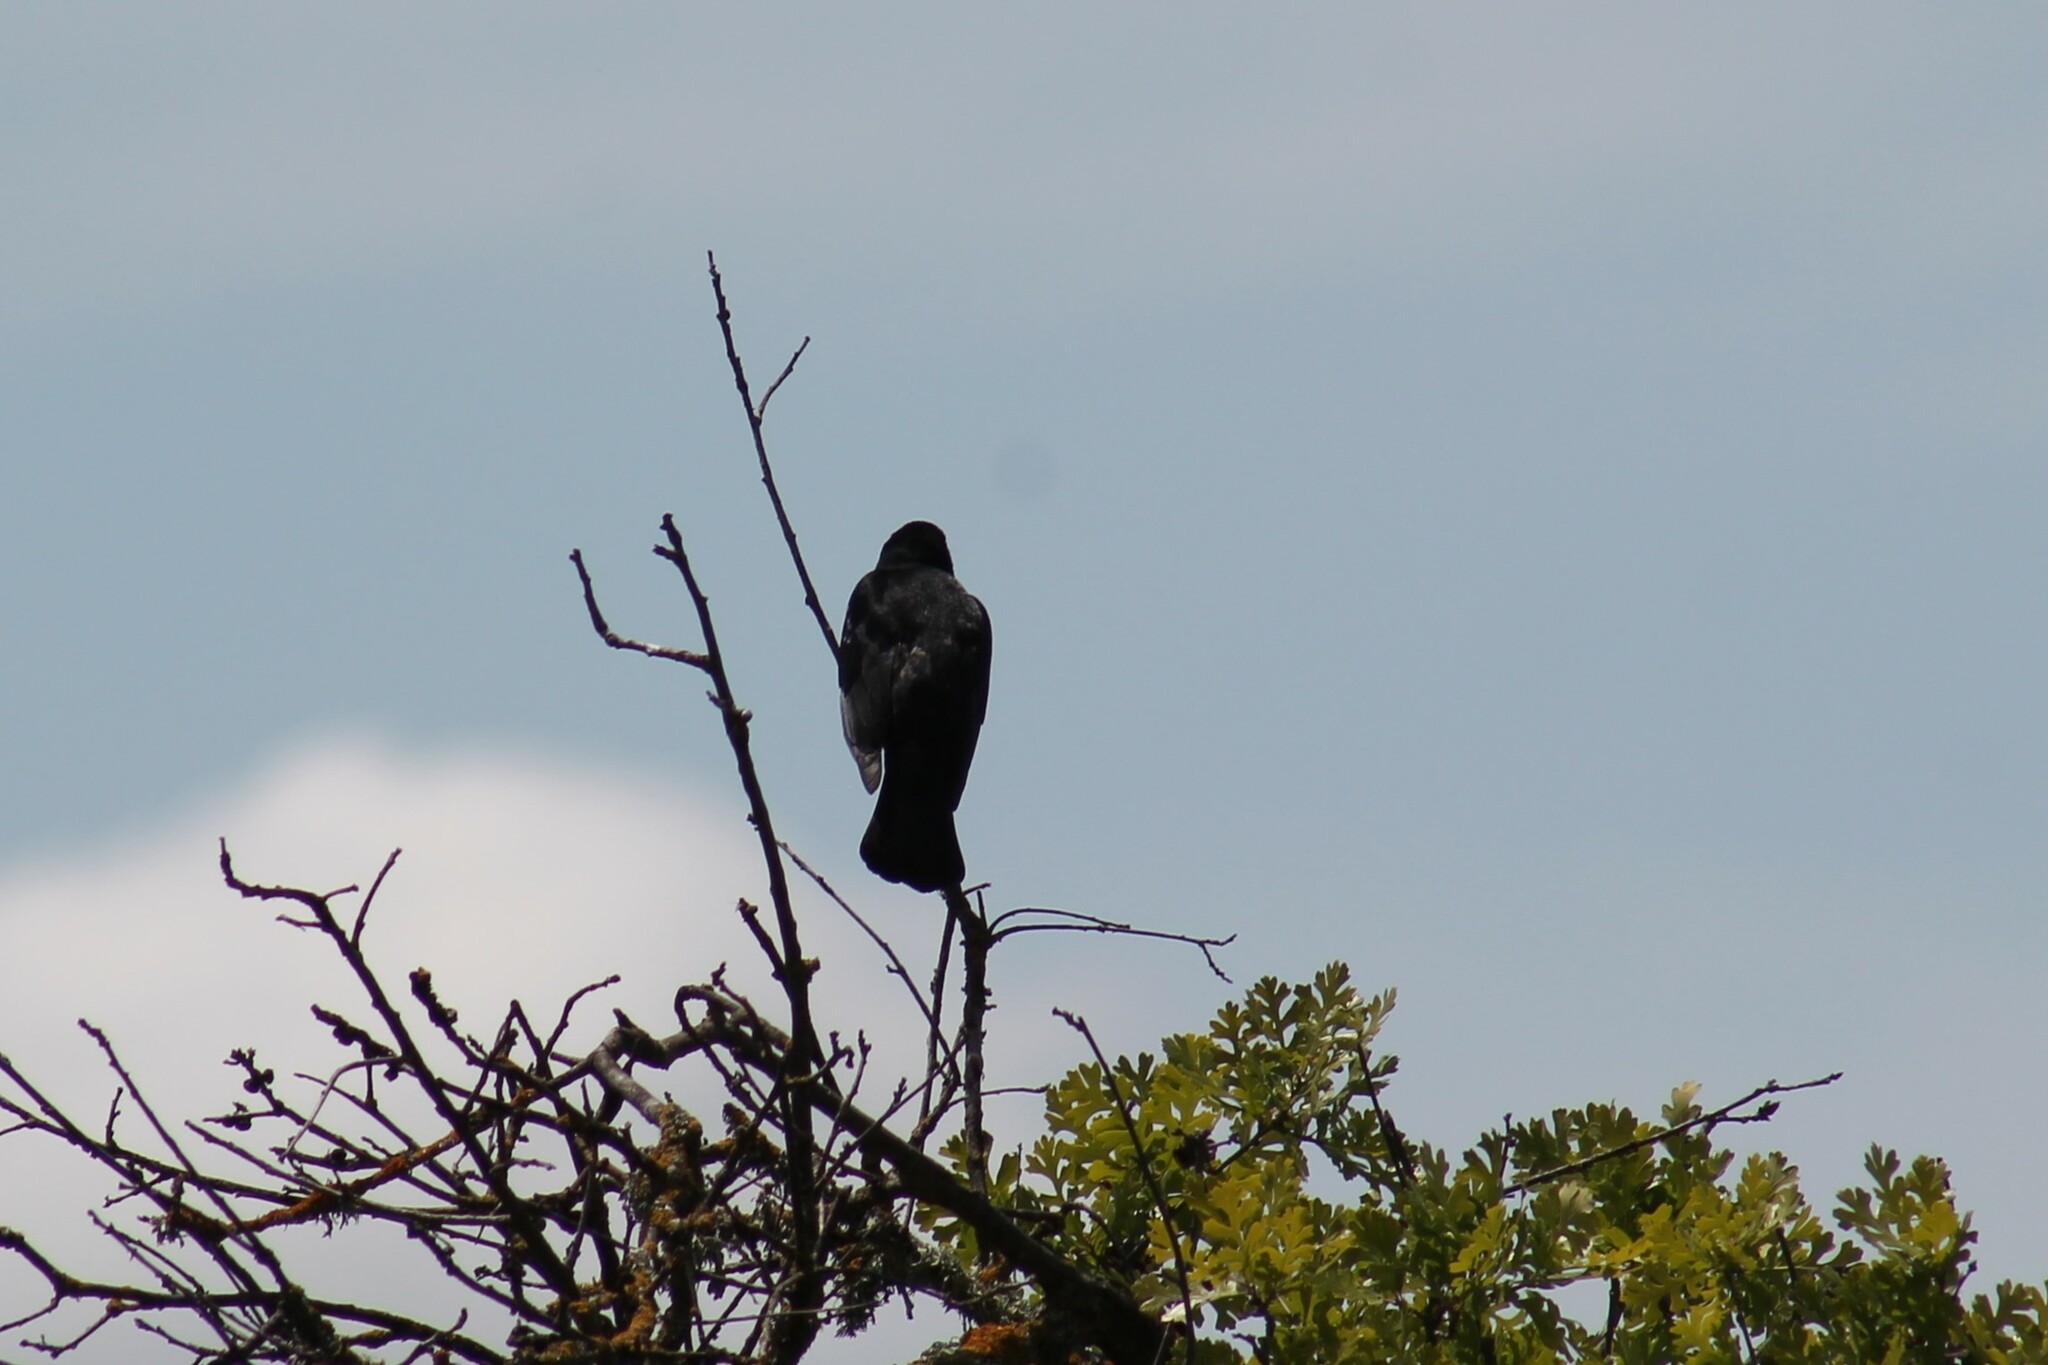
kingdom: Animalia
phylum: Chordata
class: Aves
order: Passeriformes
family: Icteridae
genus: Agelaius
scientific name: Agelaius phoeniceus
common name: Red-winged blackbird
